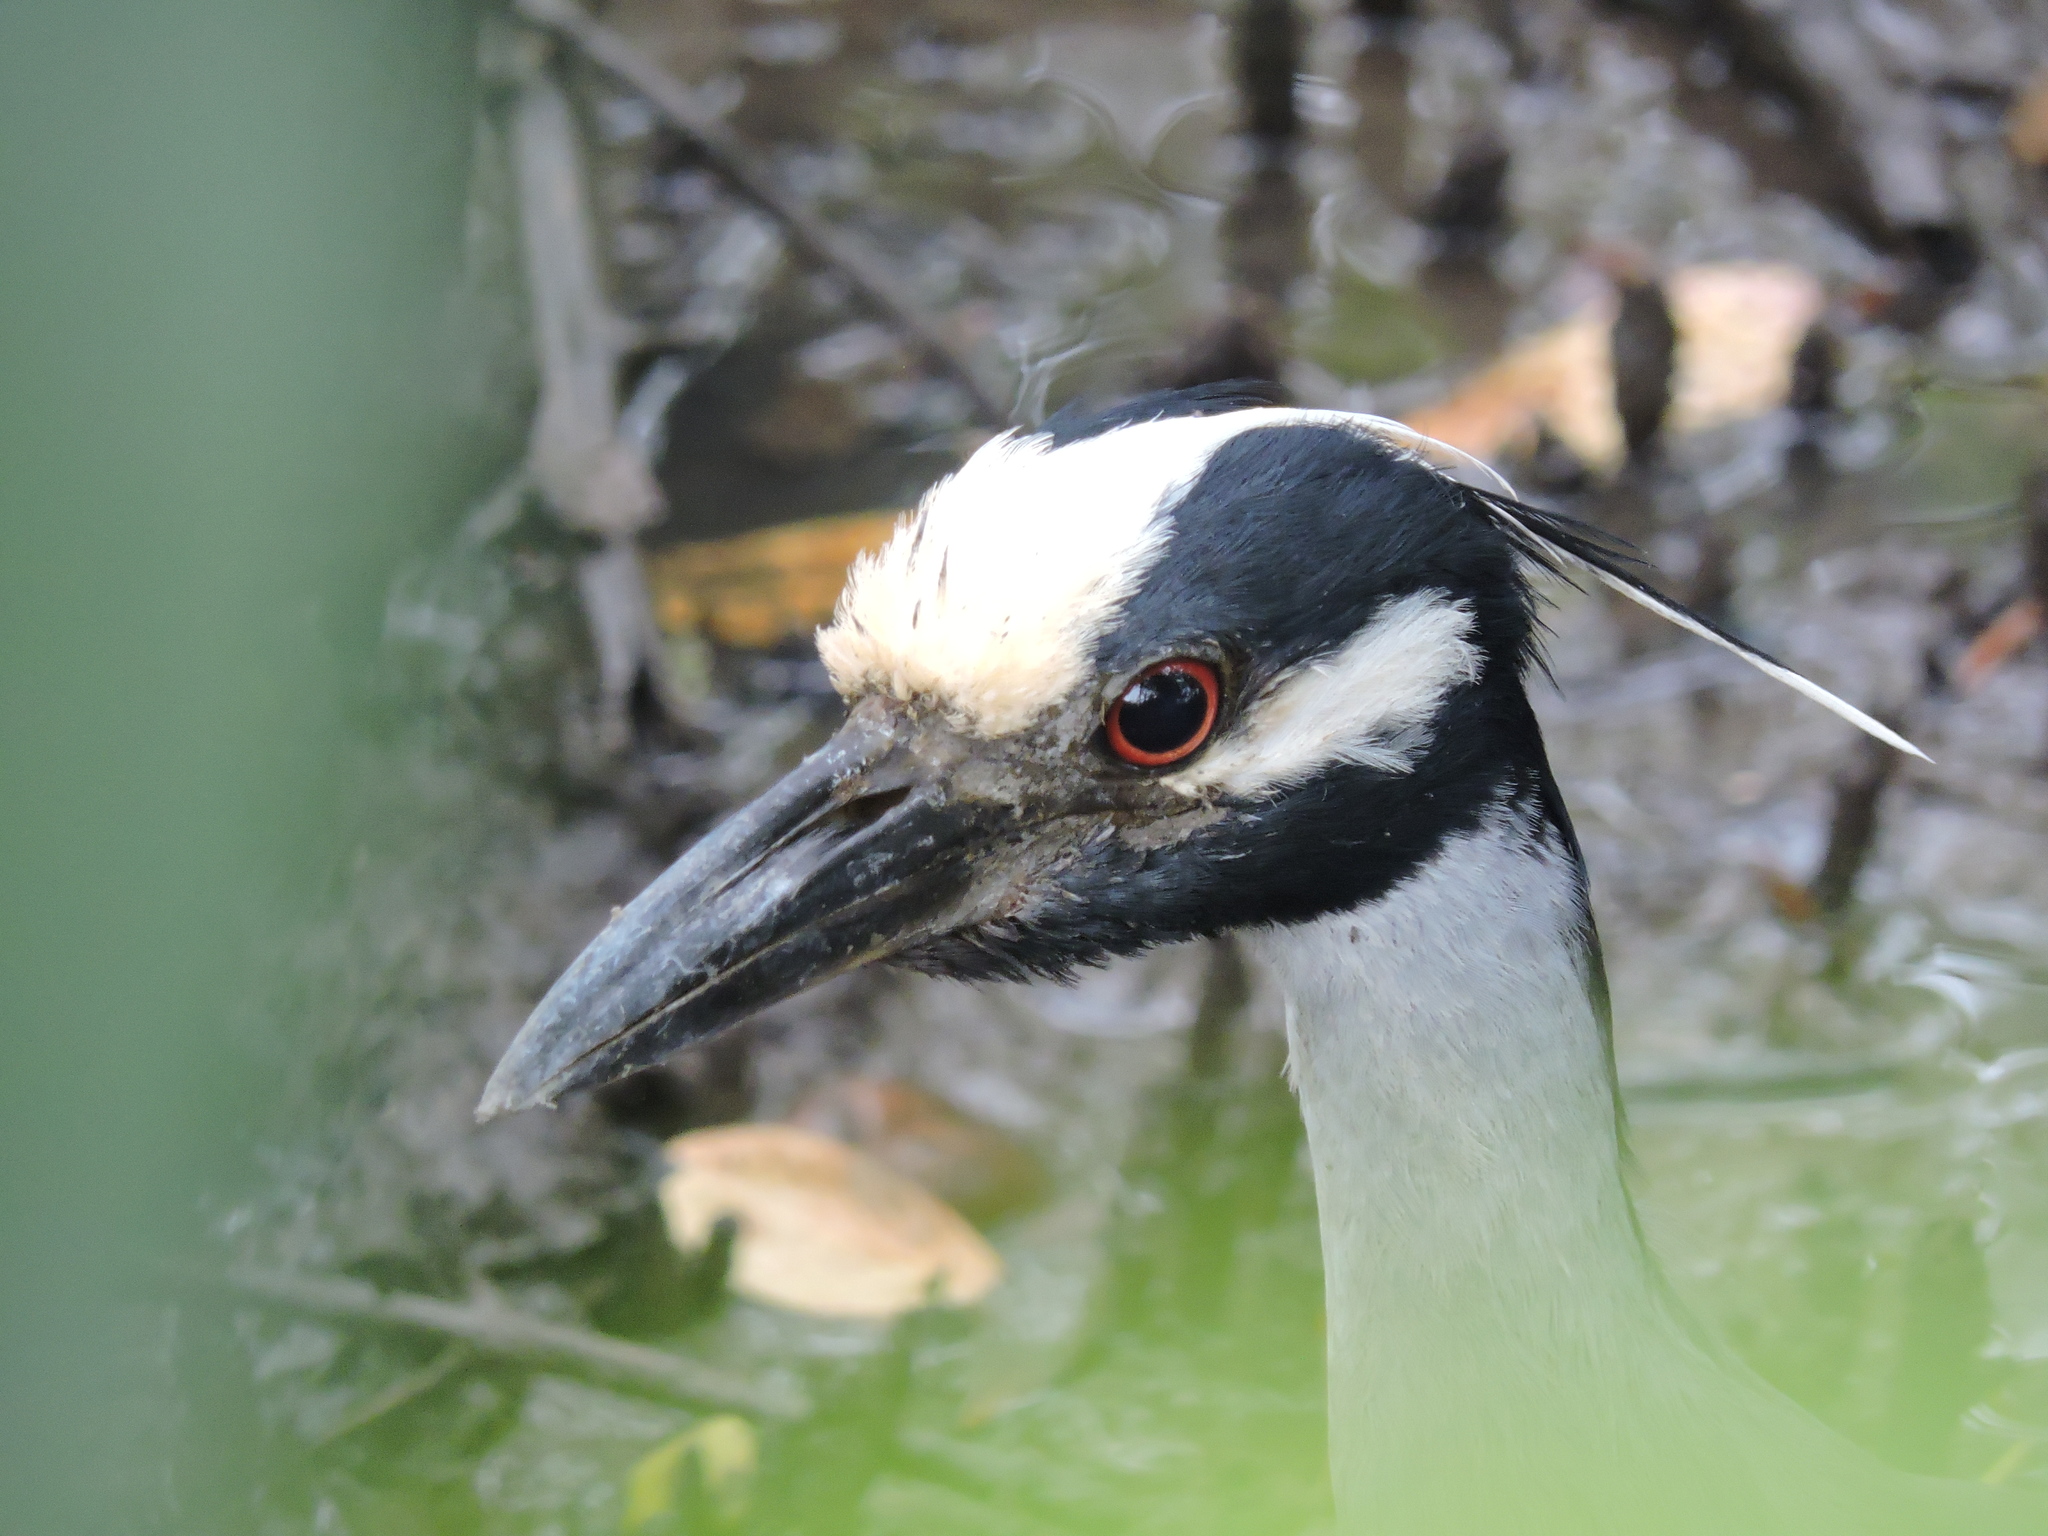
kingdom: Animalia
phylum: Chordata
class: Aves
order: Pelecaniformes
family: Ardeidae
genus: Nyctanassa
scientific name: Nyctanassa violacea
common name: Yellow-crowned night heron
